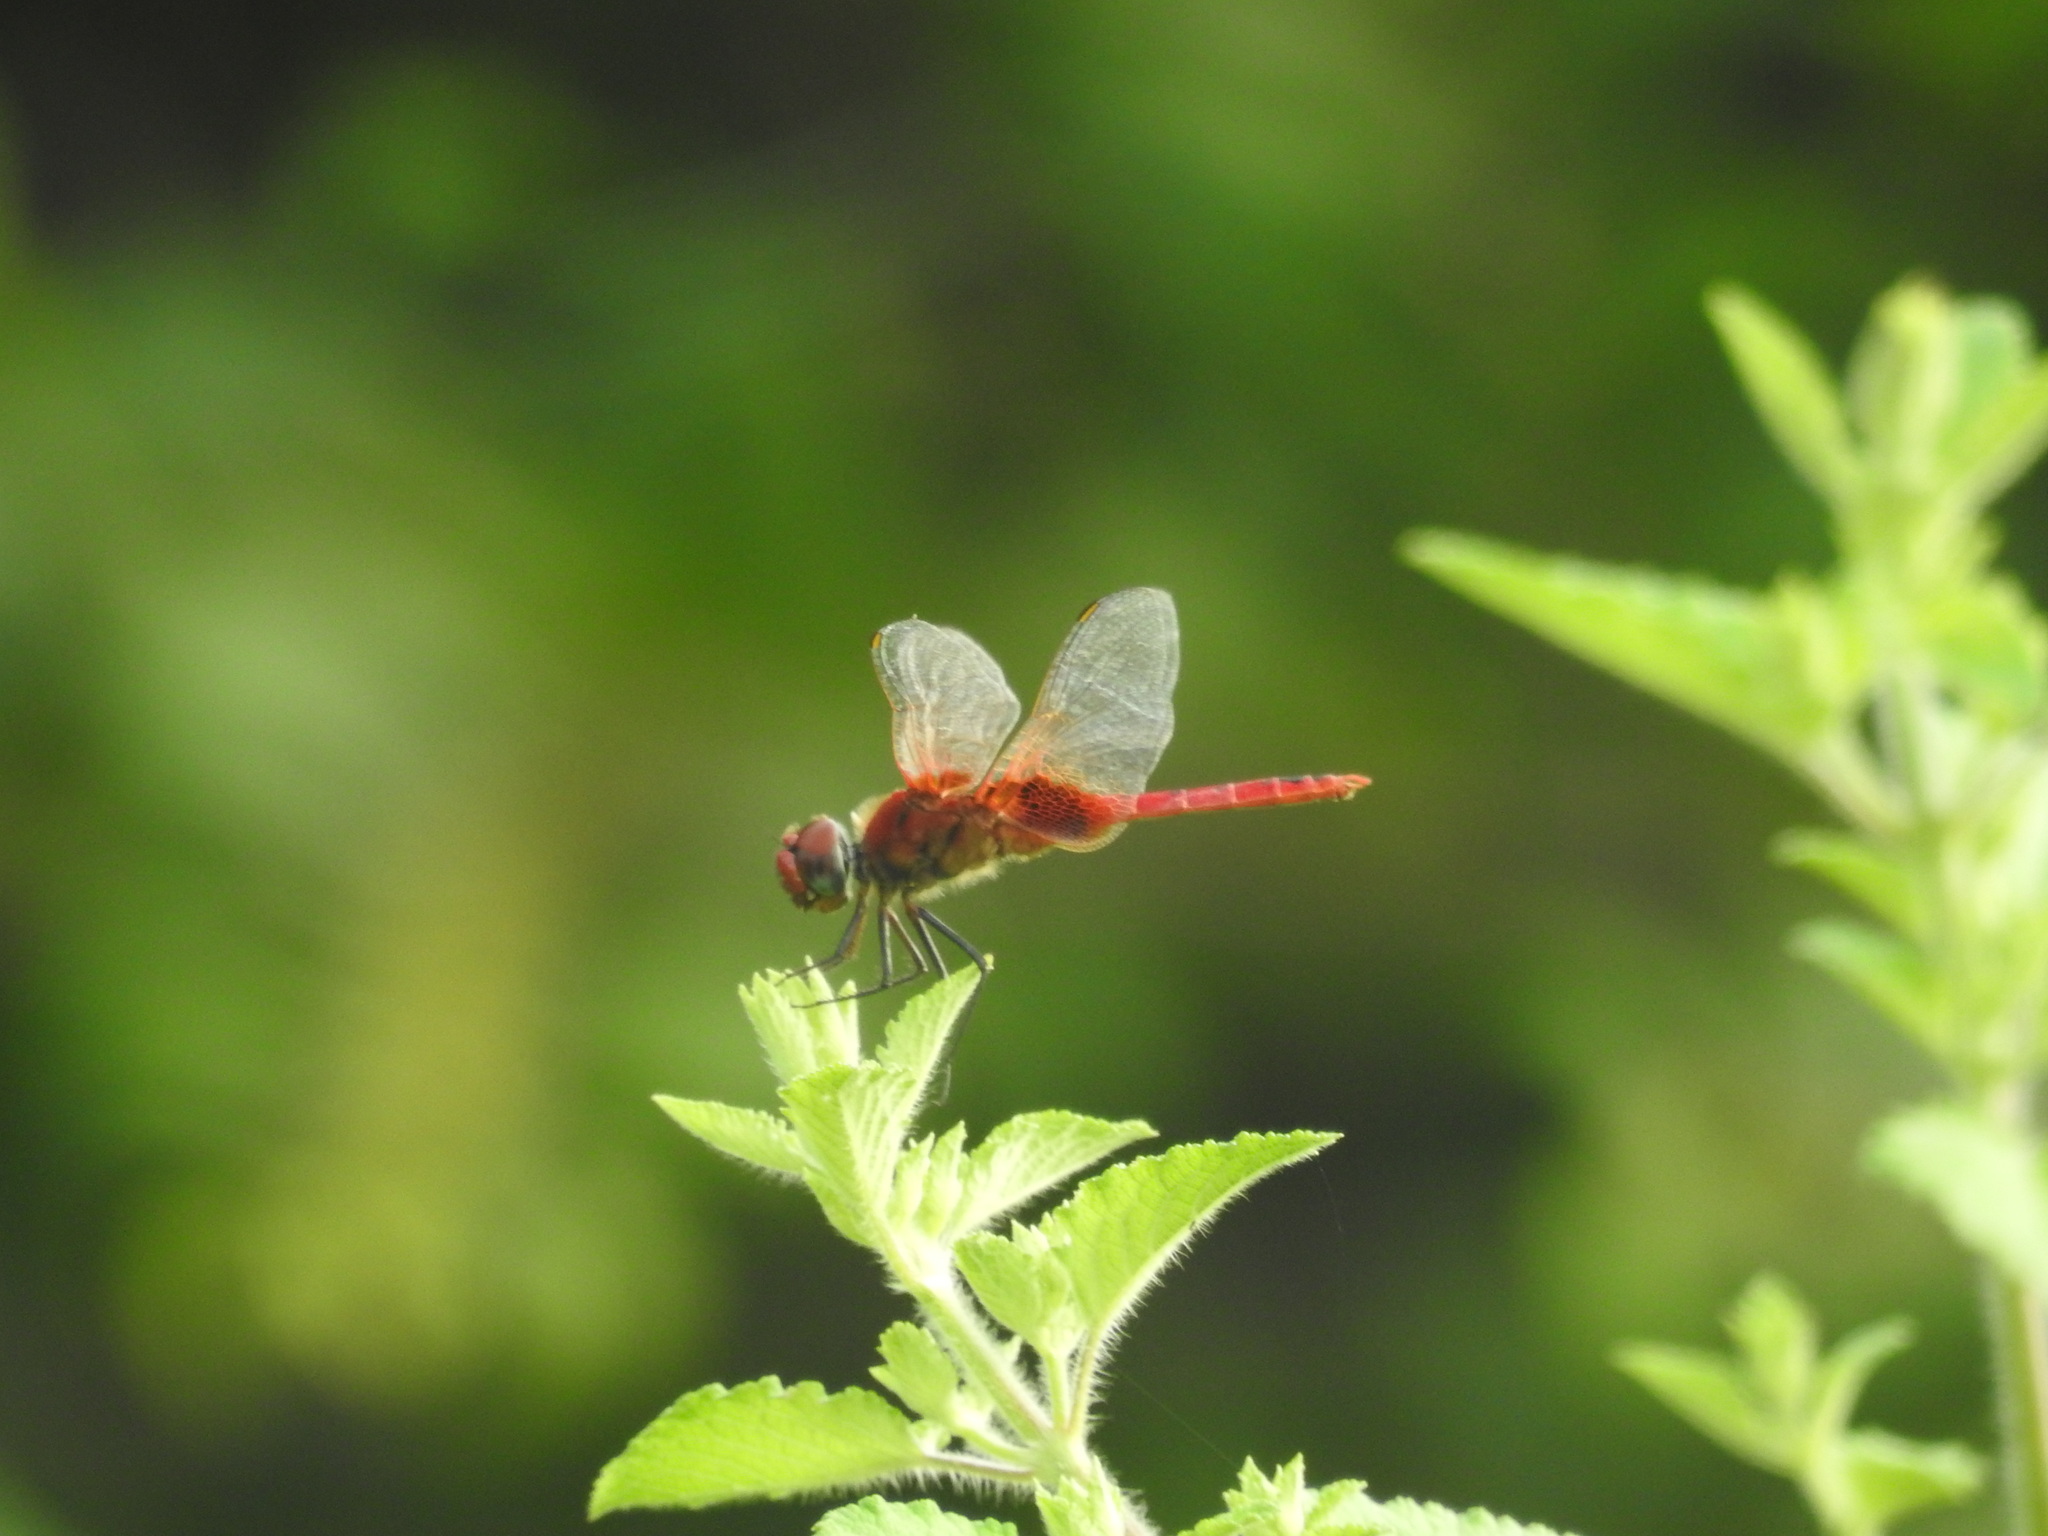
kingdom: Animalia
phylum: Arthropoda
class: Insecta
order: Odonata
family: Libellulidae
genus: Urothemis
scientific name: Urothemis signata
